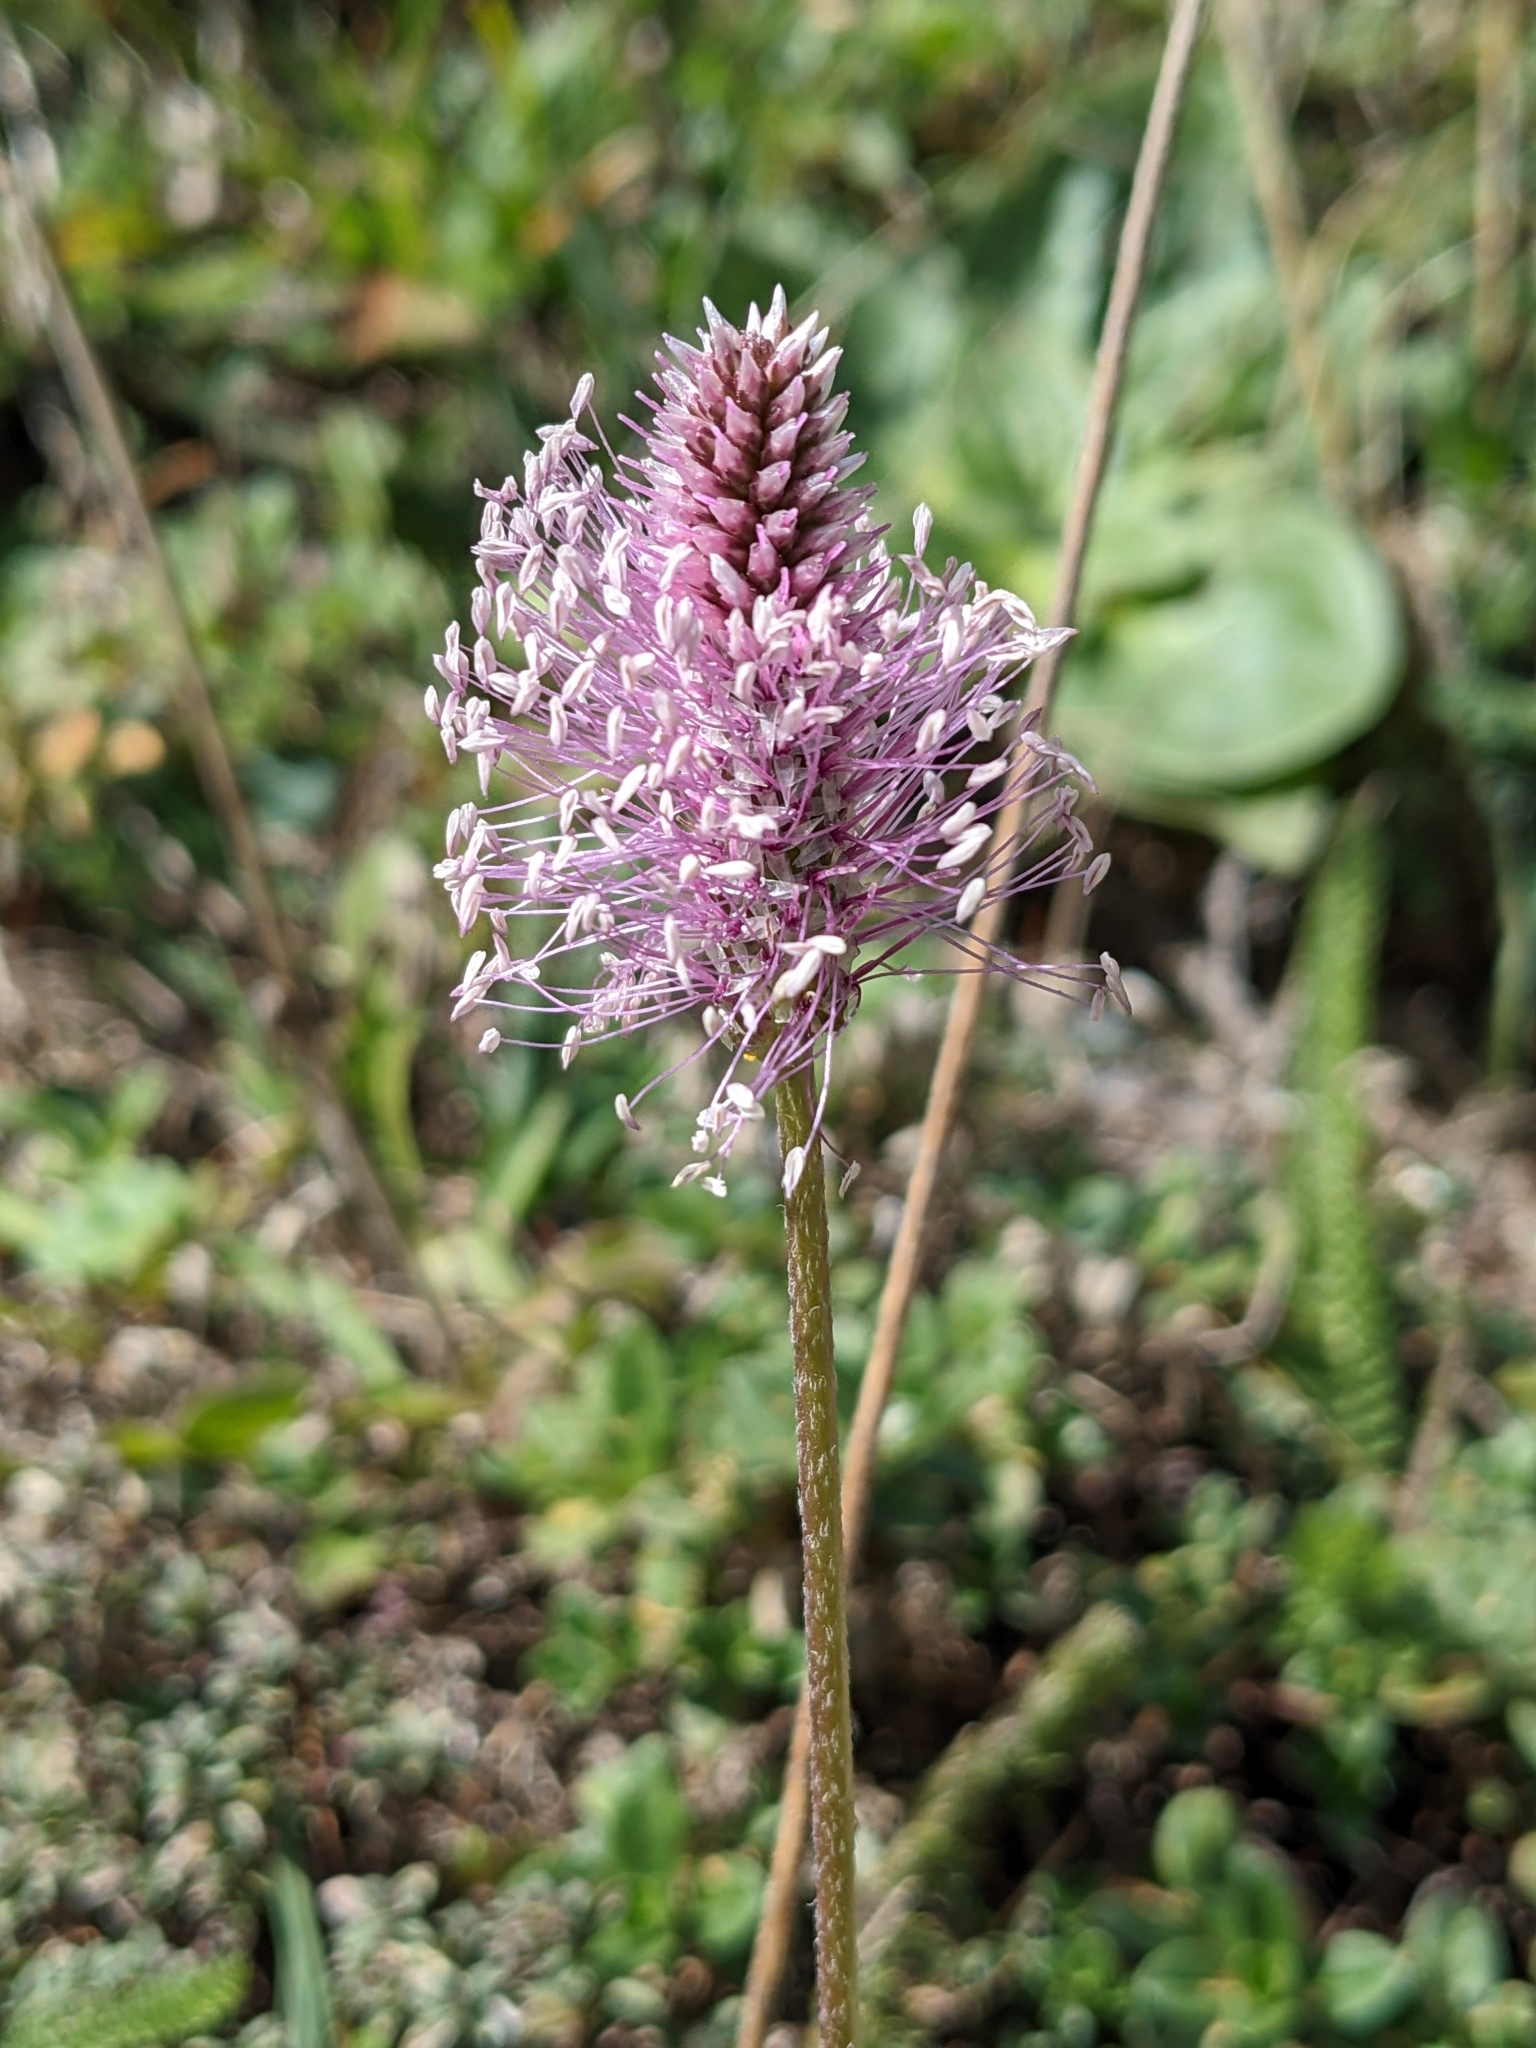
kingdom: Plantae
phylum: Tracheophyta
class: Magnoliopsida
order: Lamiales
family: Plantaginaceae
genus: Plantago
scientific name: Plantago media
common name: Hoary plantain
